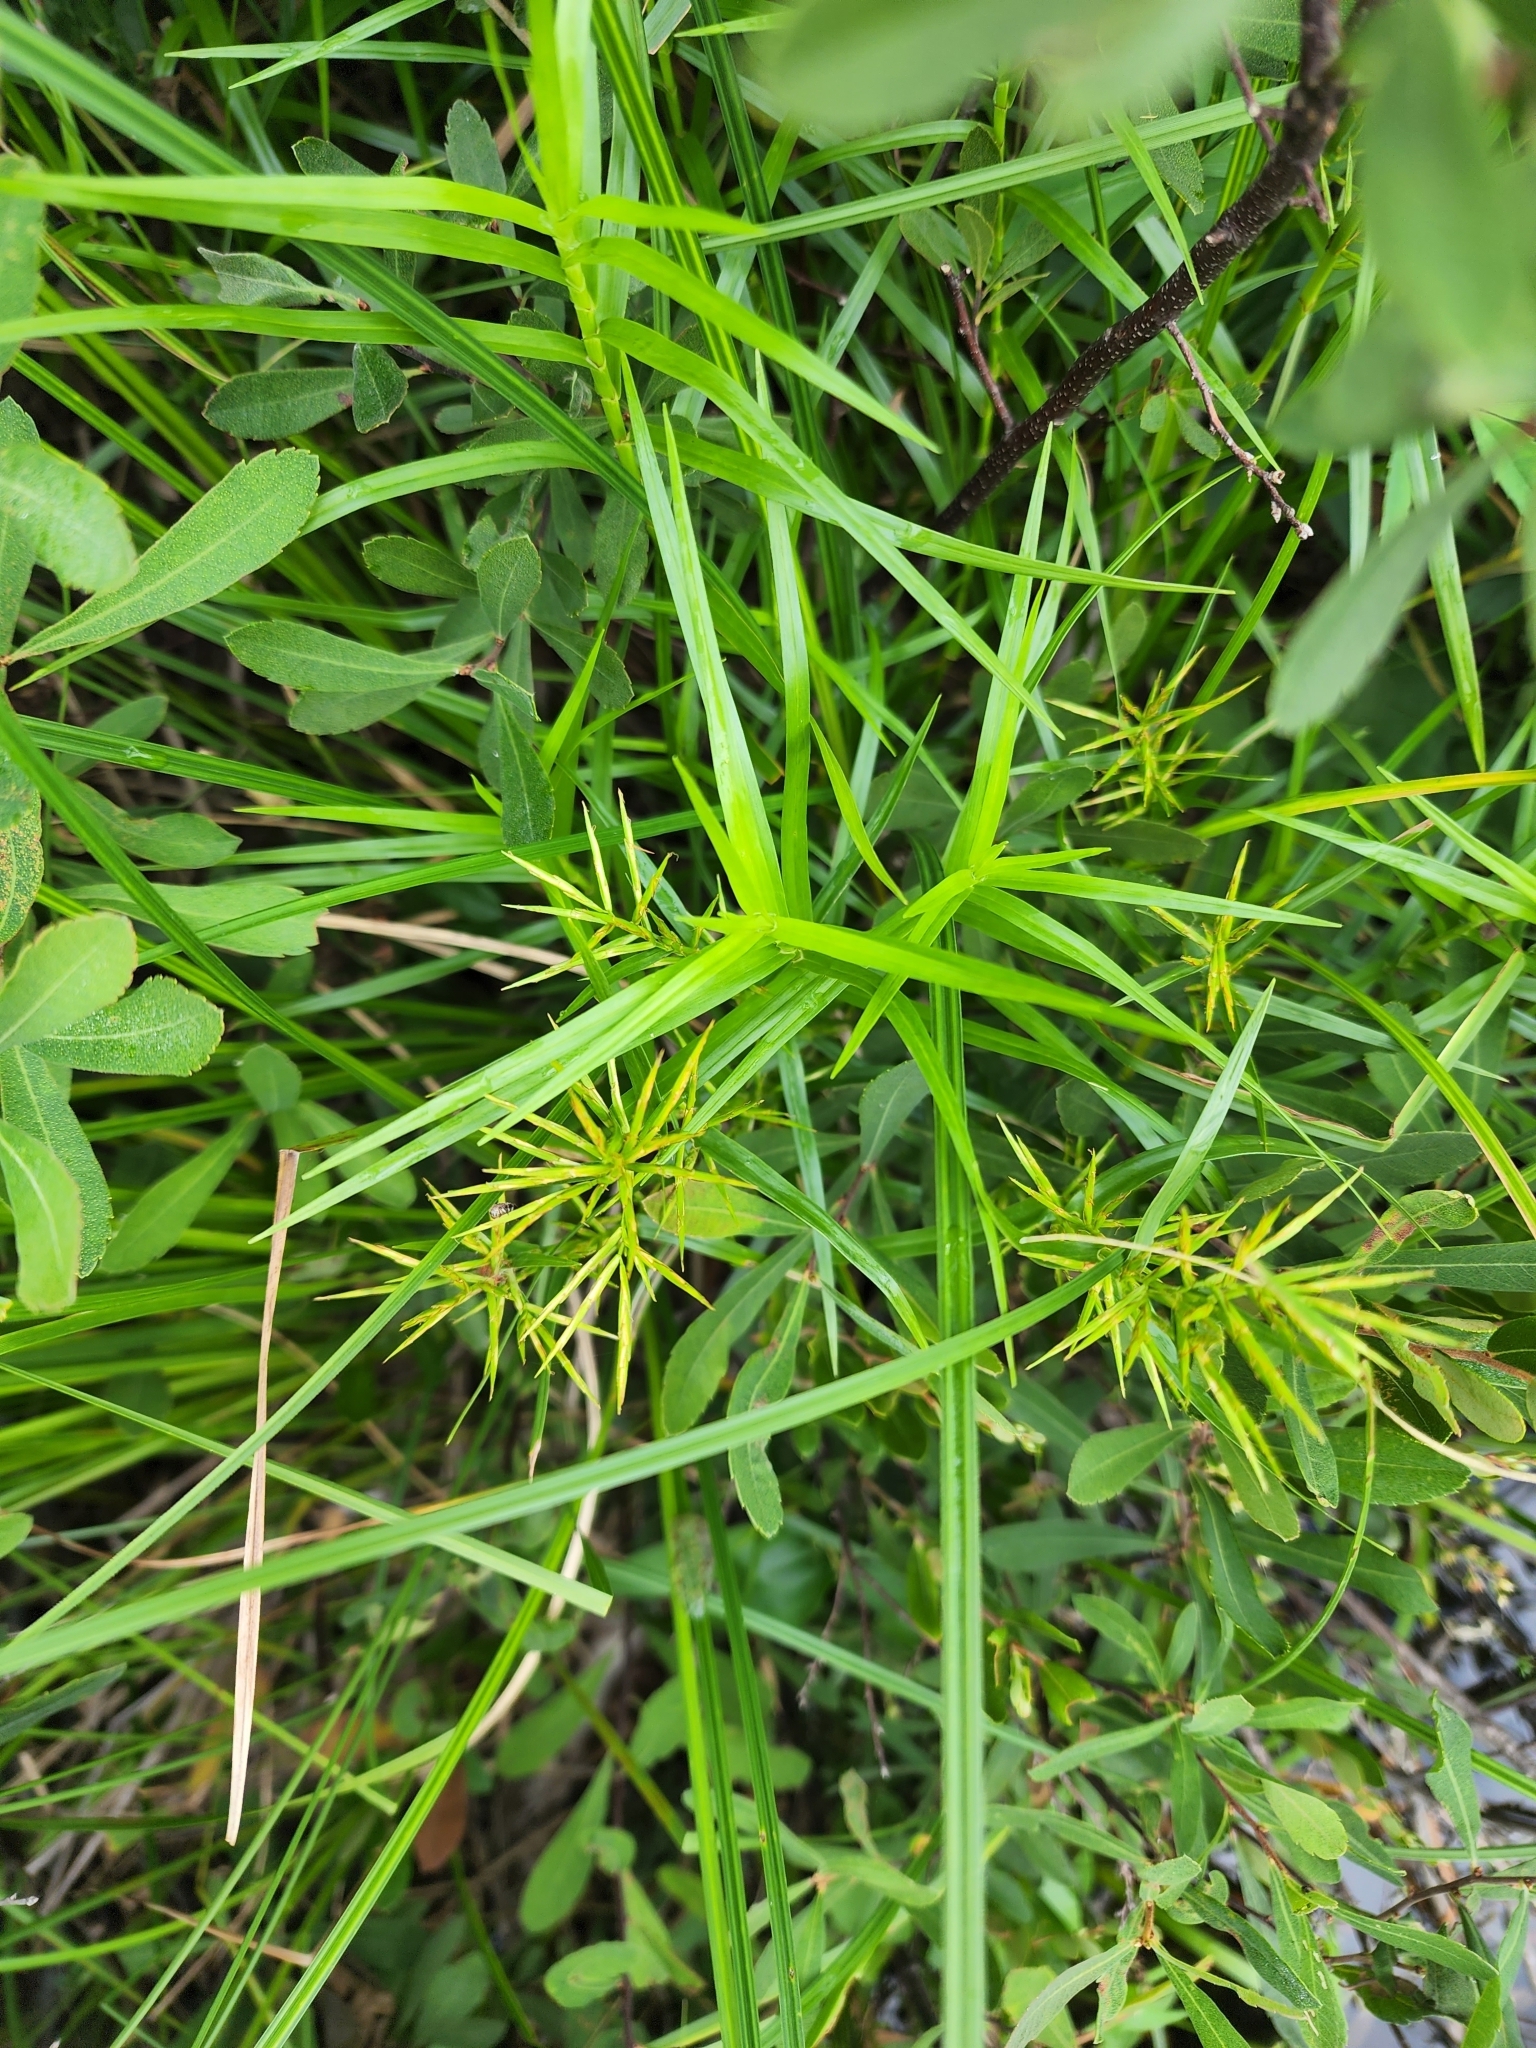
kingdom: Plantae
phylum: Tracheophyta
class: Liliopsida
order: Poales
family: Cyperaceae
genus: Dulichium
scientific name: Dulichium arundinaceum
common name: Three-way sedge
